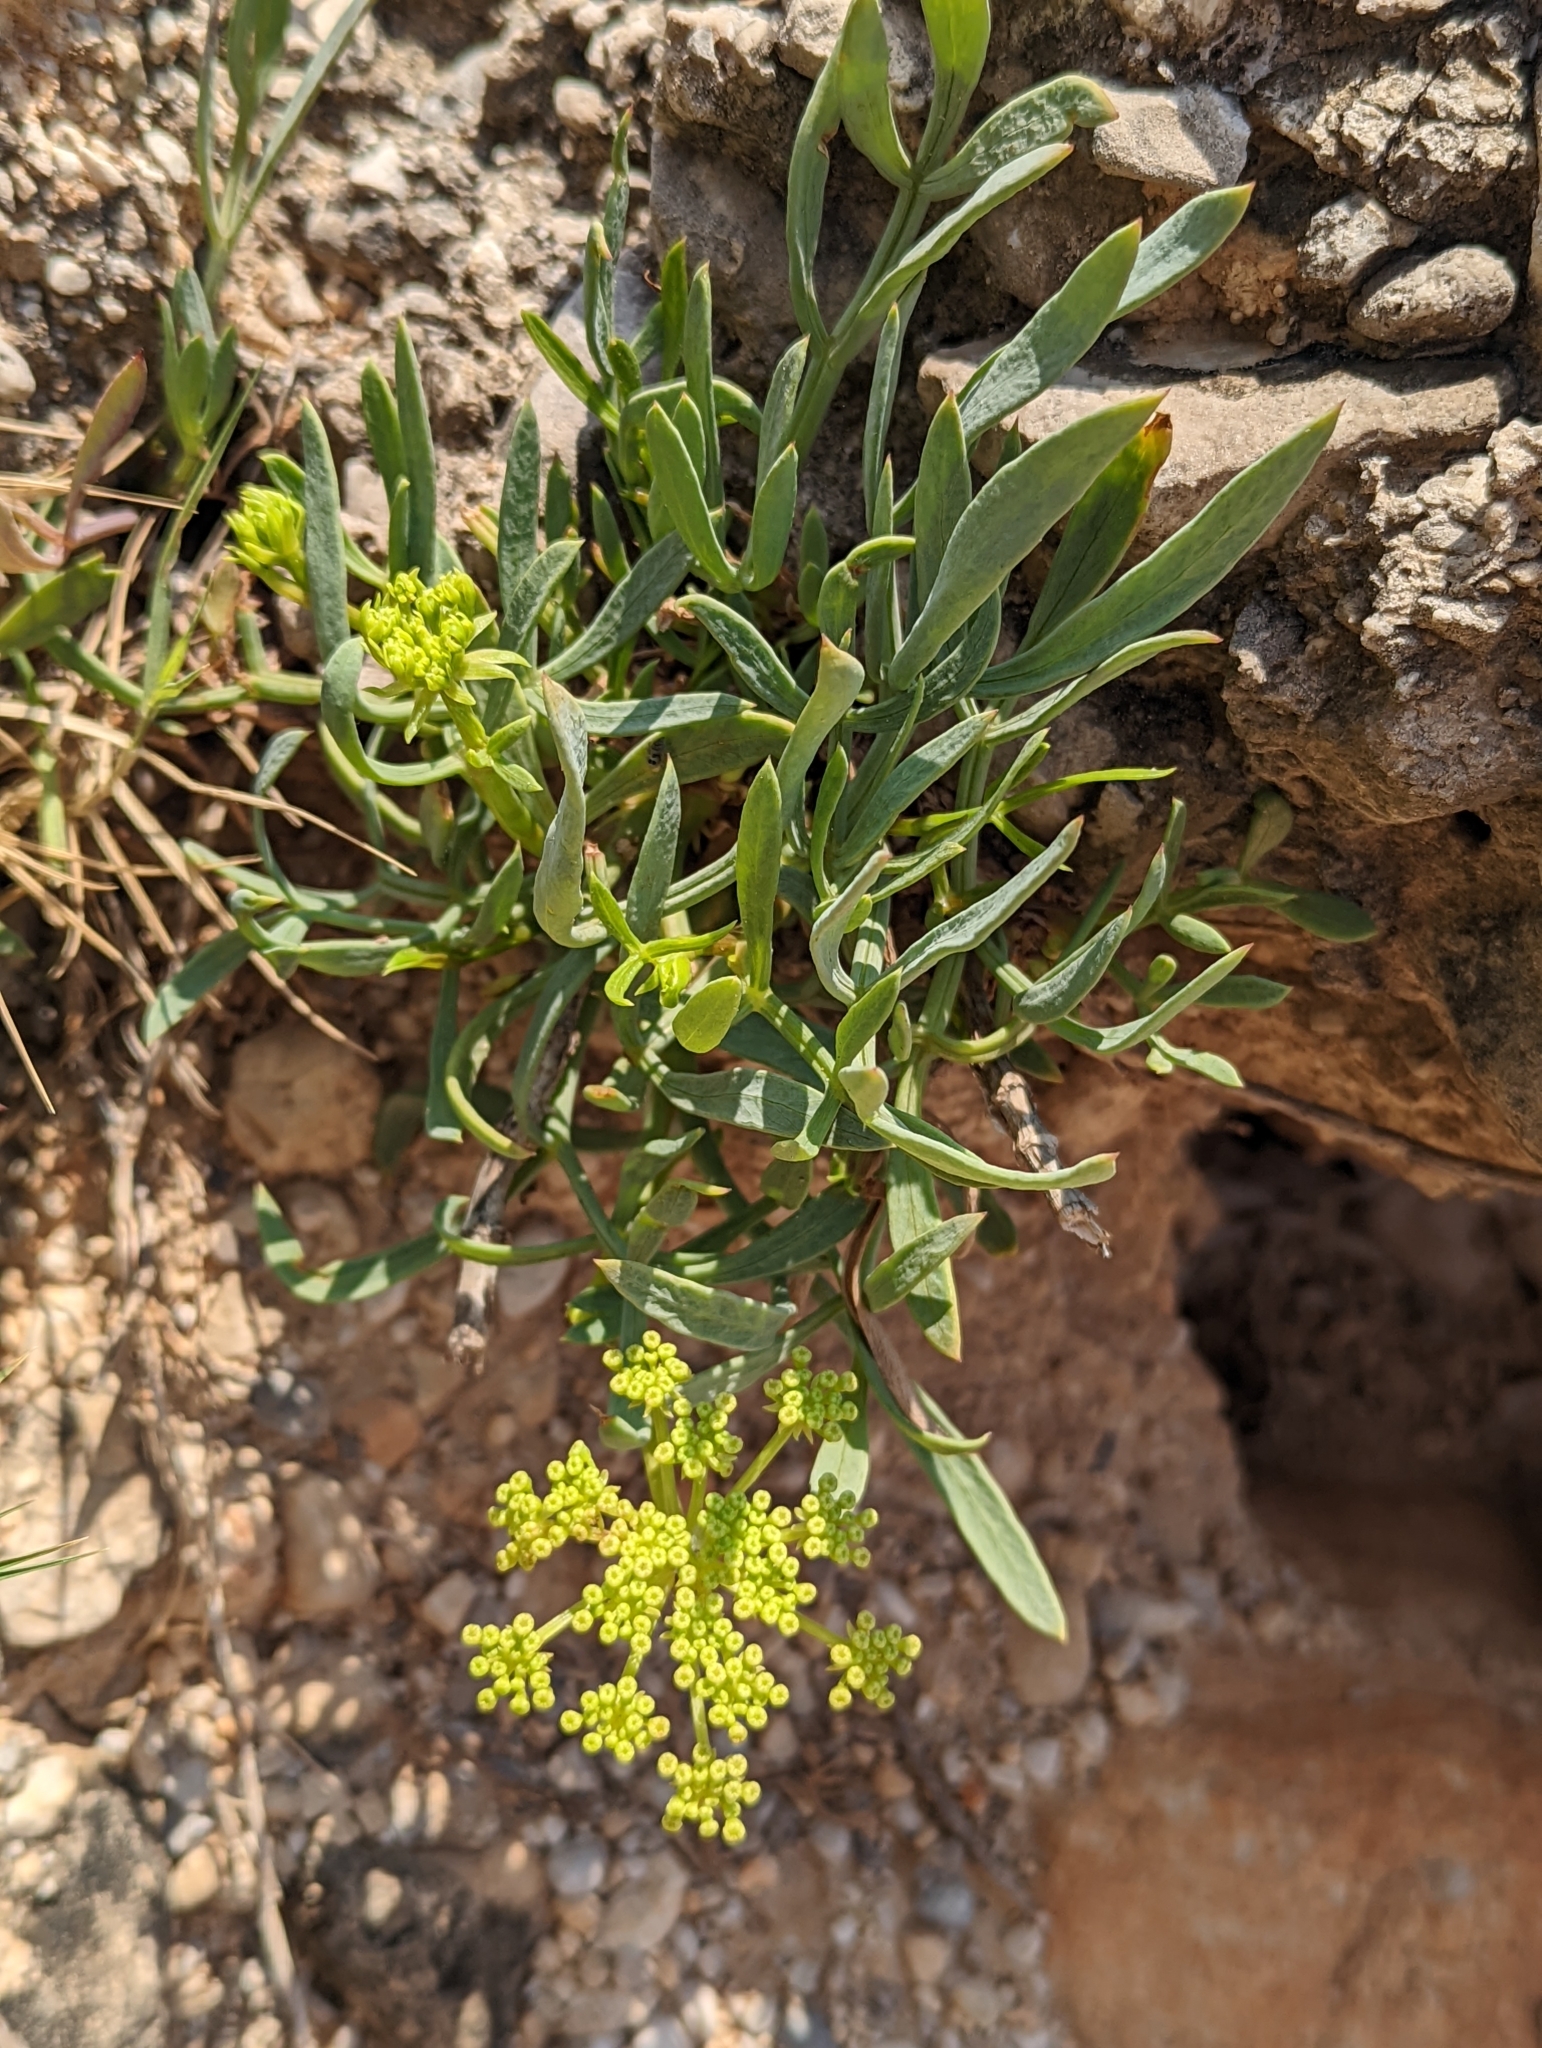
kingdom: Plantae
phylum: Tracheophyta
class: Magnoliopsida
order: Apiales
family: Apiaceae
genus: Crithmum
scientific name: Crithmum maritimum
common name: Rock samphire
